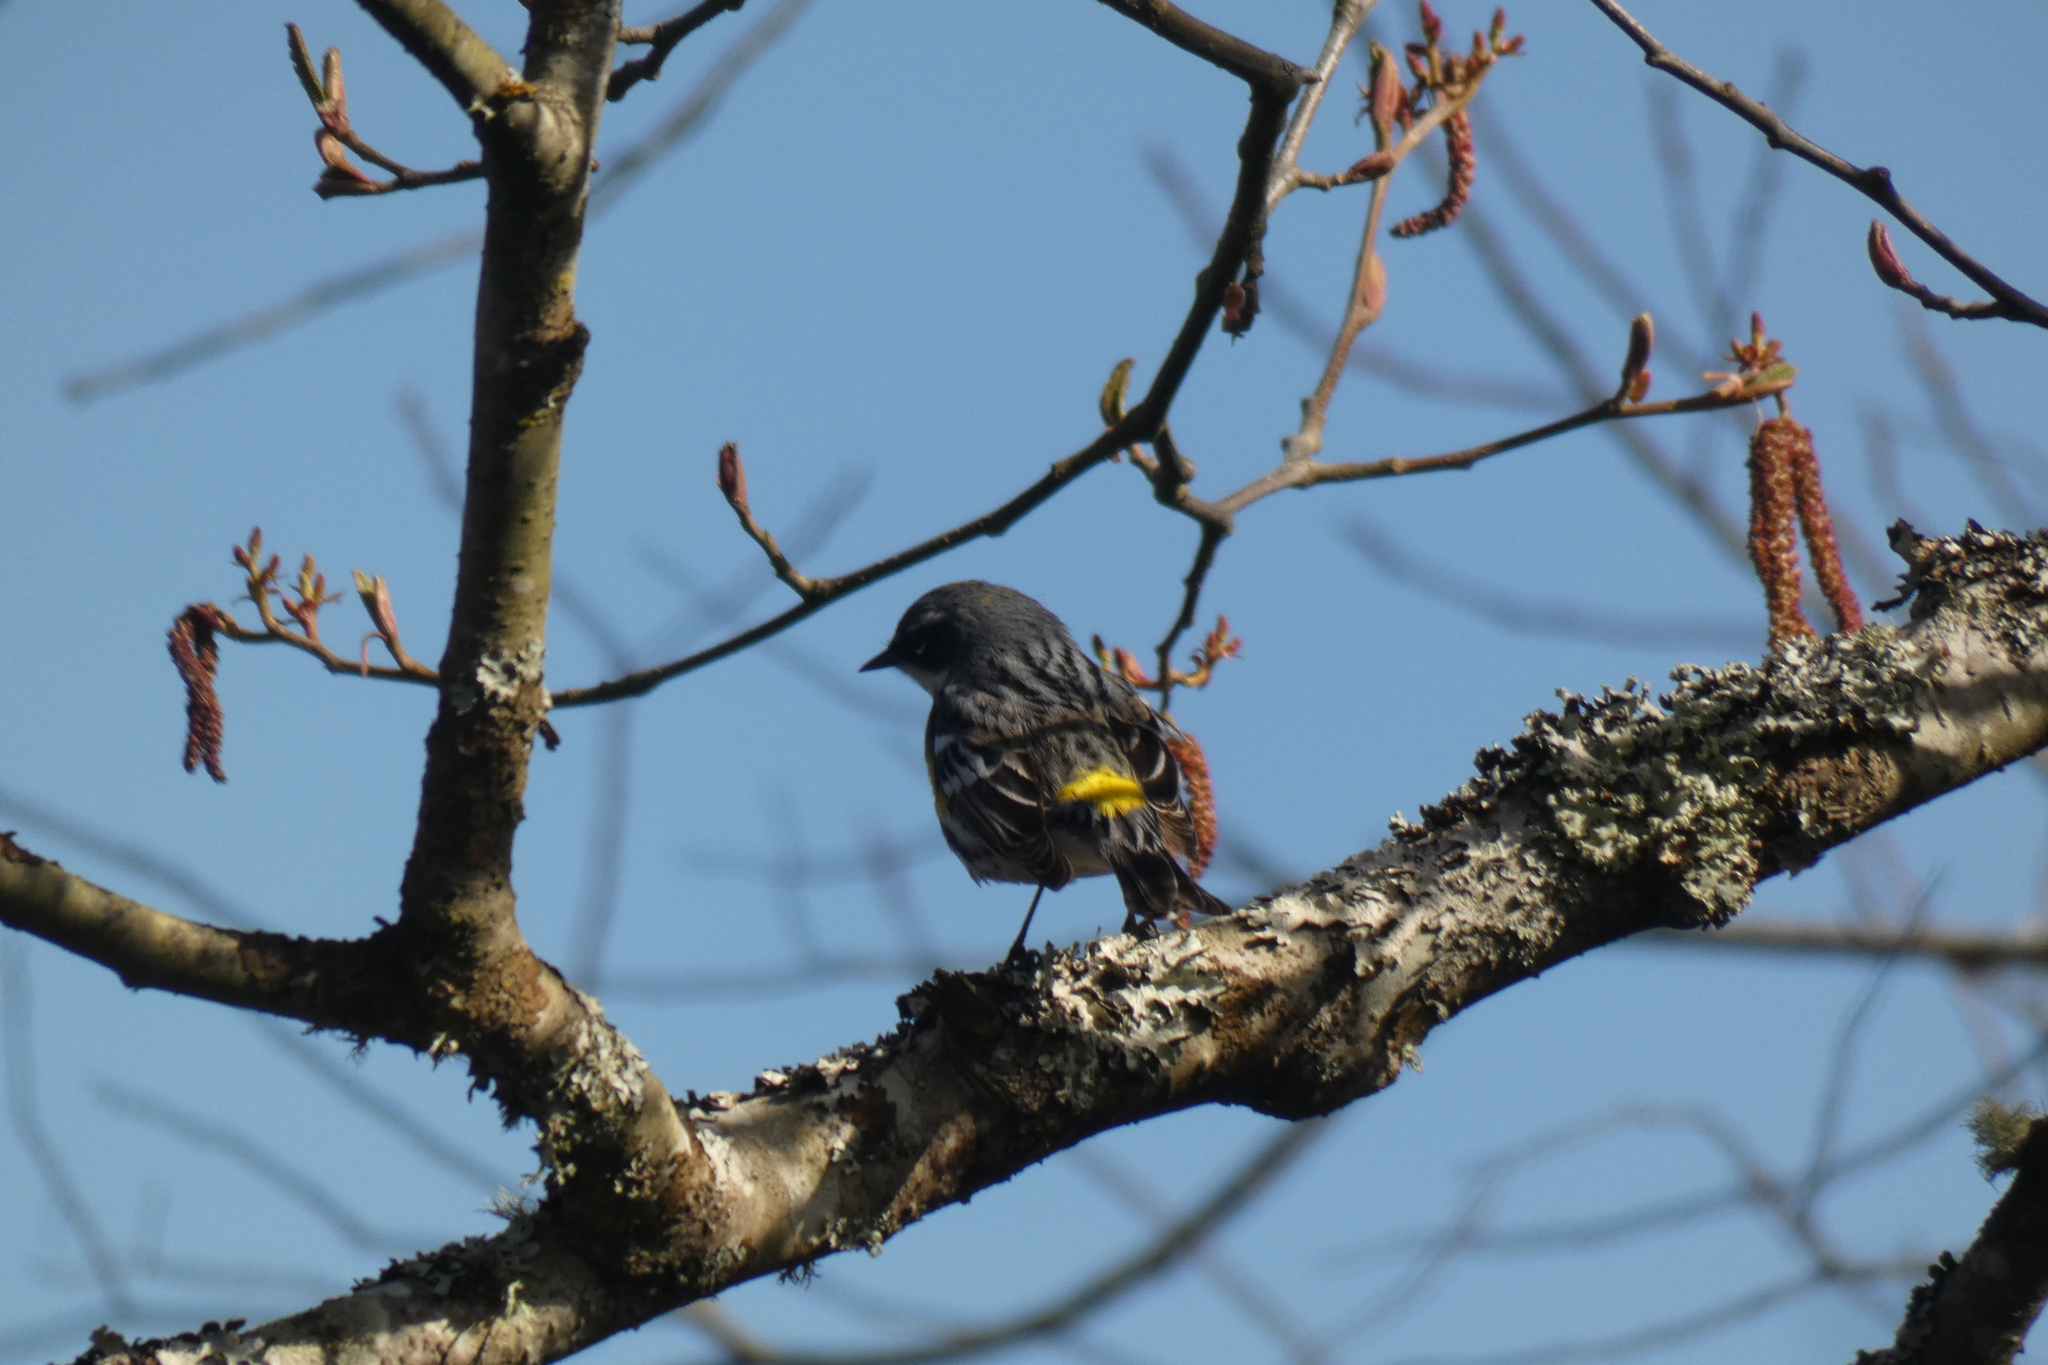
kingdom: Animalia
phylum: Chordata
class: Aves
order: Passeriformes
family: Parulidae
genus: Setophaga
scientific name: Setophaga coronata
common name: Myrtle warbler
